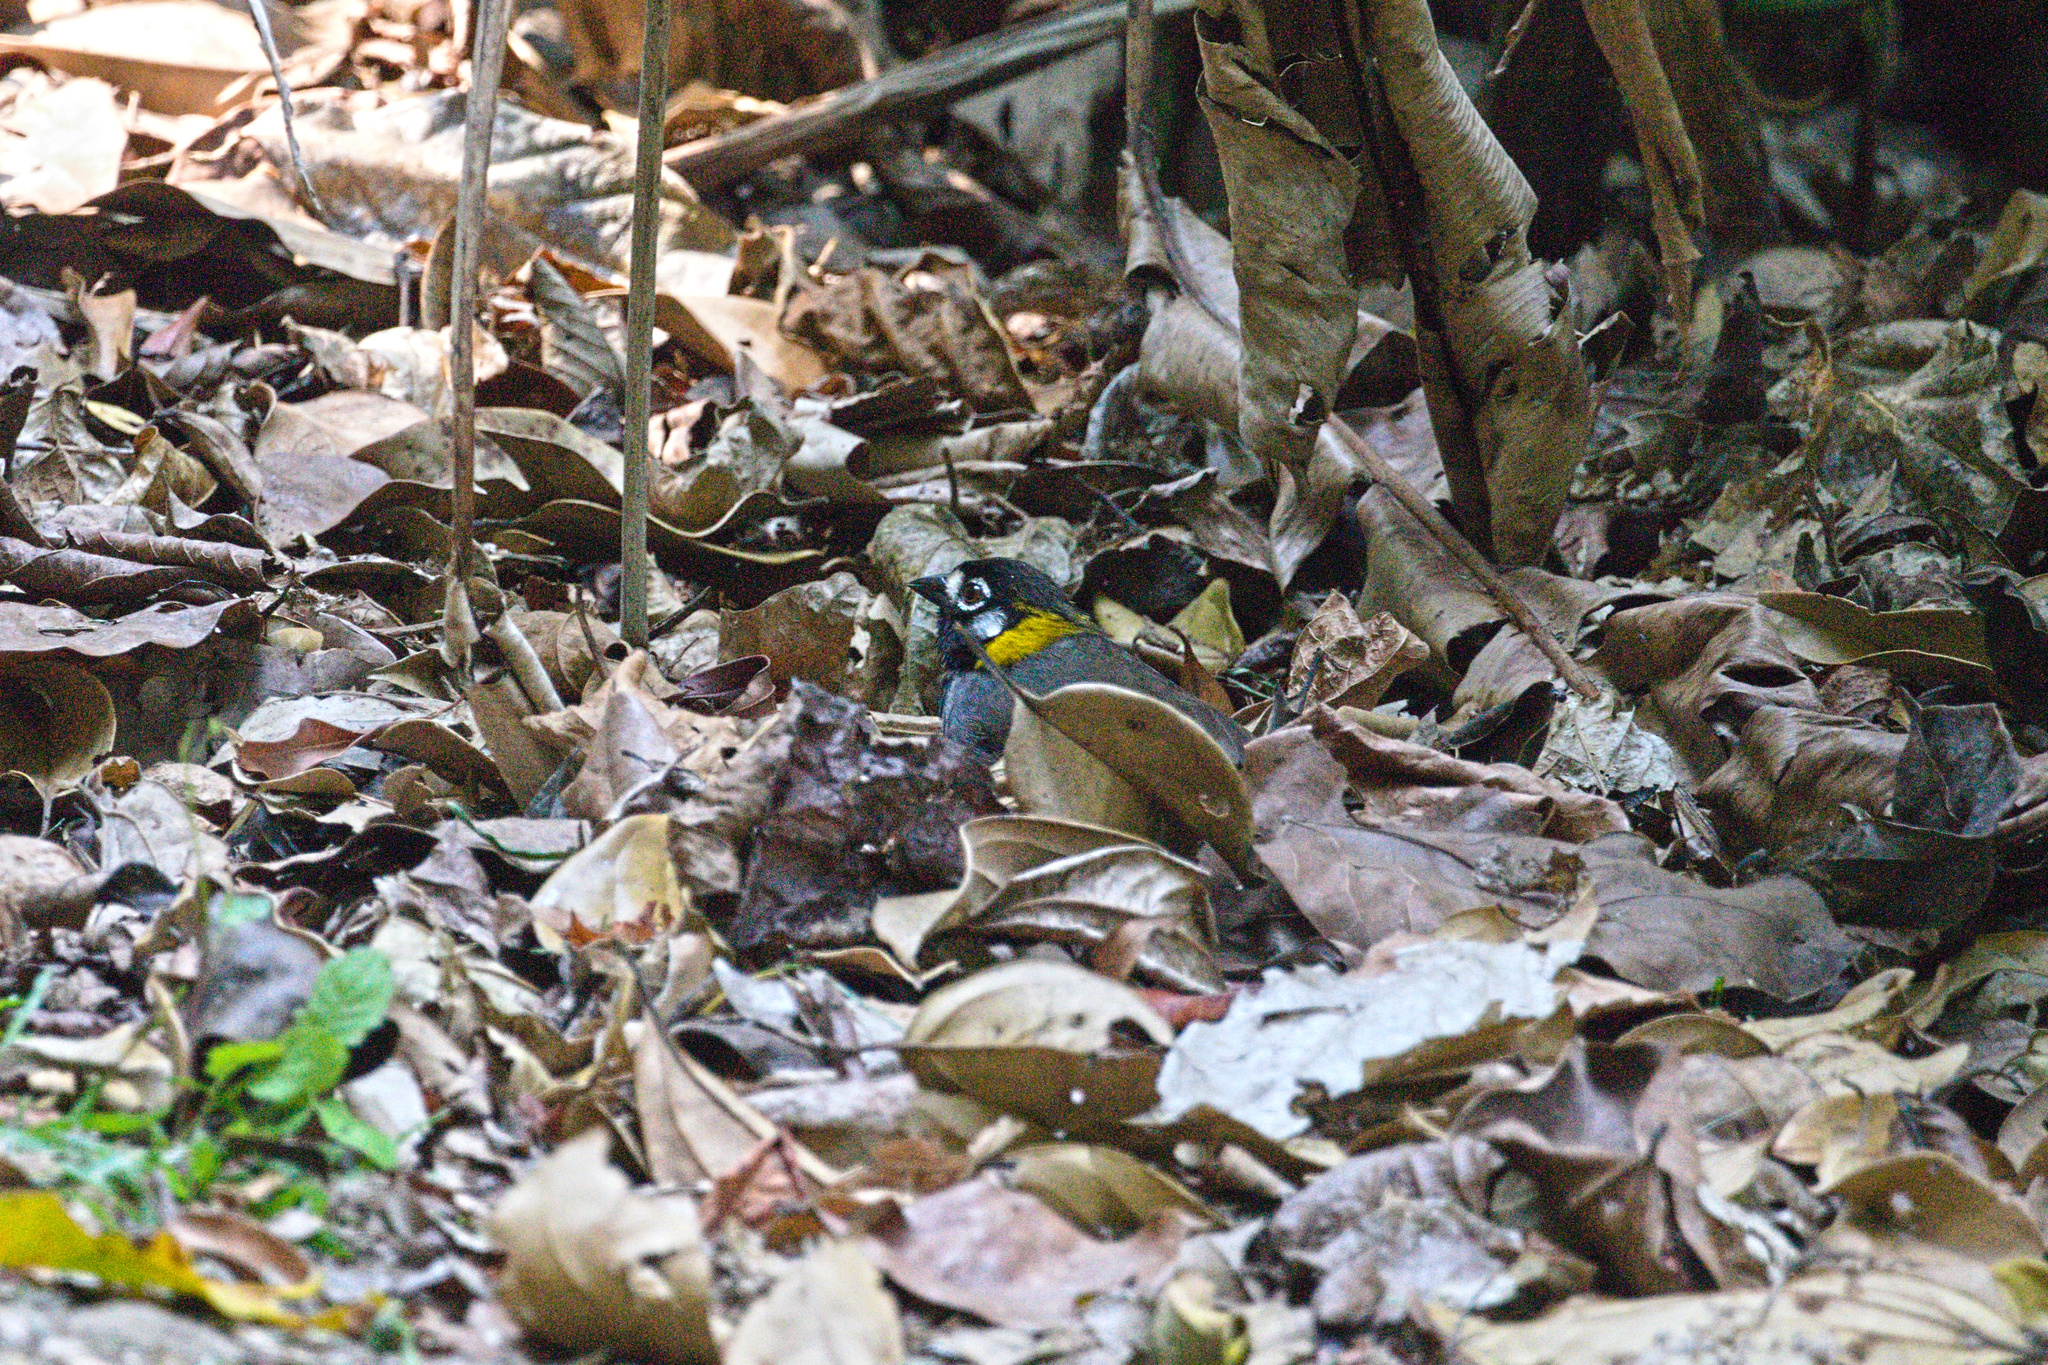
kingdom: Animalia
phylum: Chordata
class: Aves
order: Passeriformes
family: Passerellidae
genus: Melozone
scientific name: Melozone leucotis
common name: White-eared ground-sparrow
